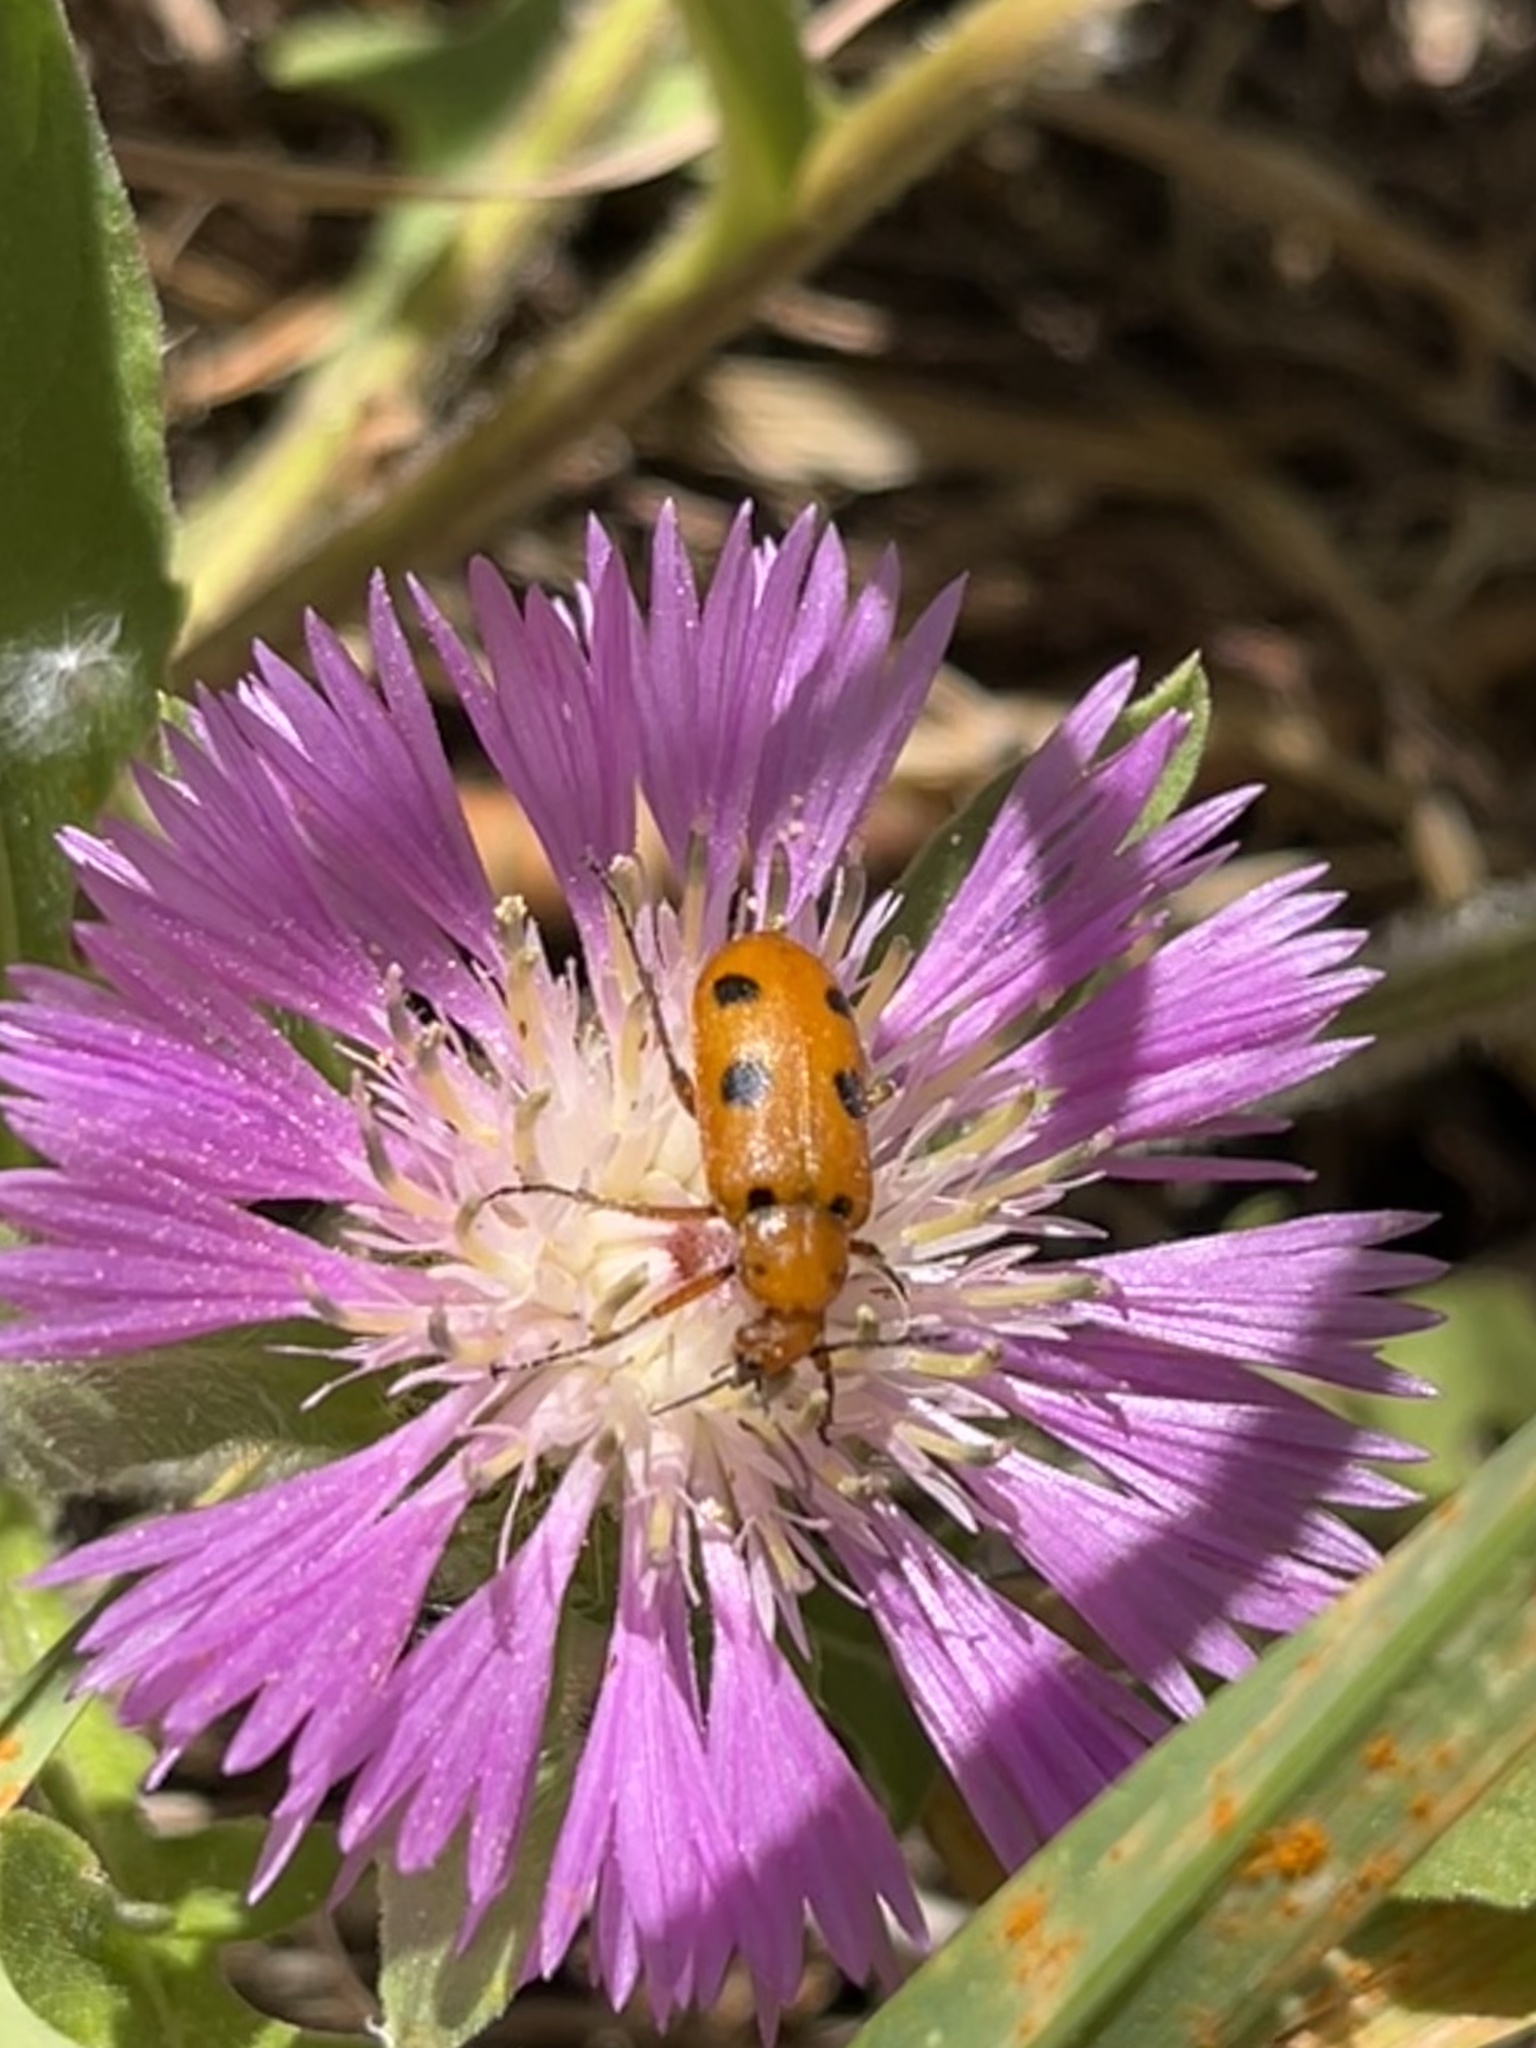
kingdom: Animalia
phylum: Arthropoda
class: Insecta
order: Coleoptera
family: Meloidae
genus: Leptopalpus
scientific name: Leptopalpus rostratus
